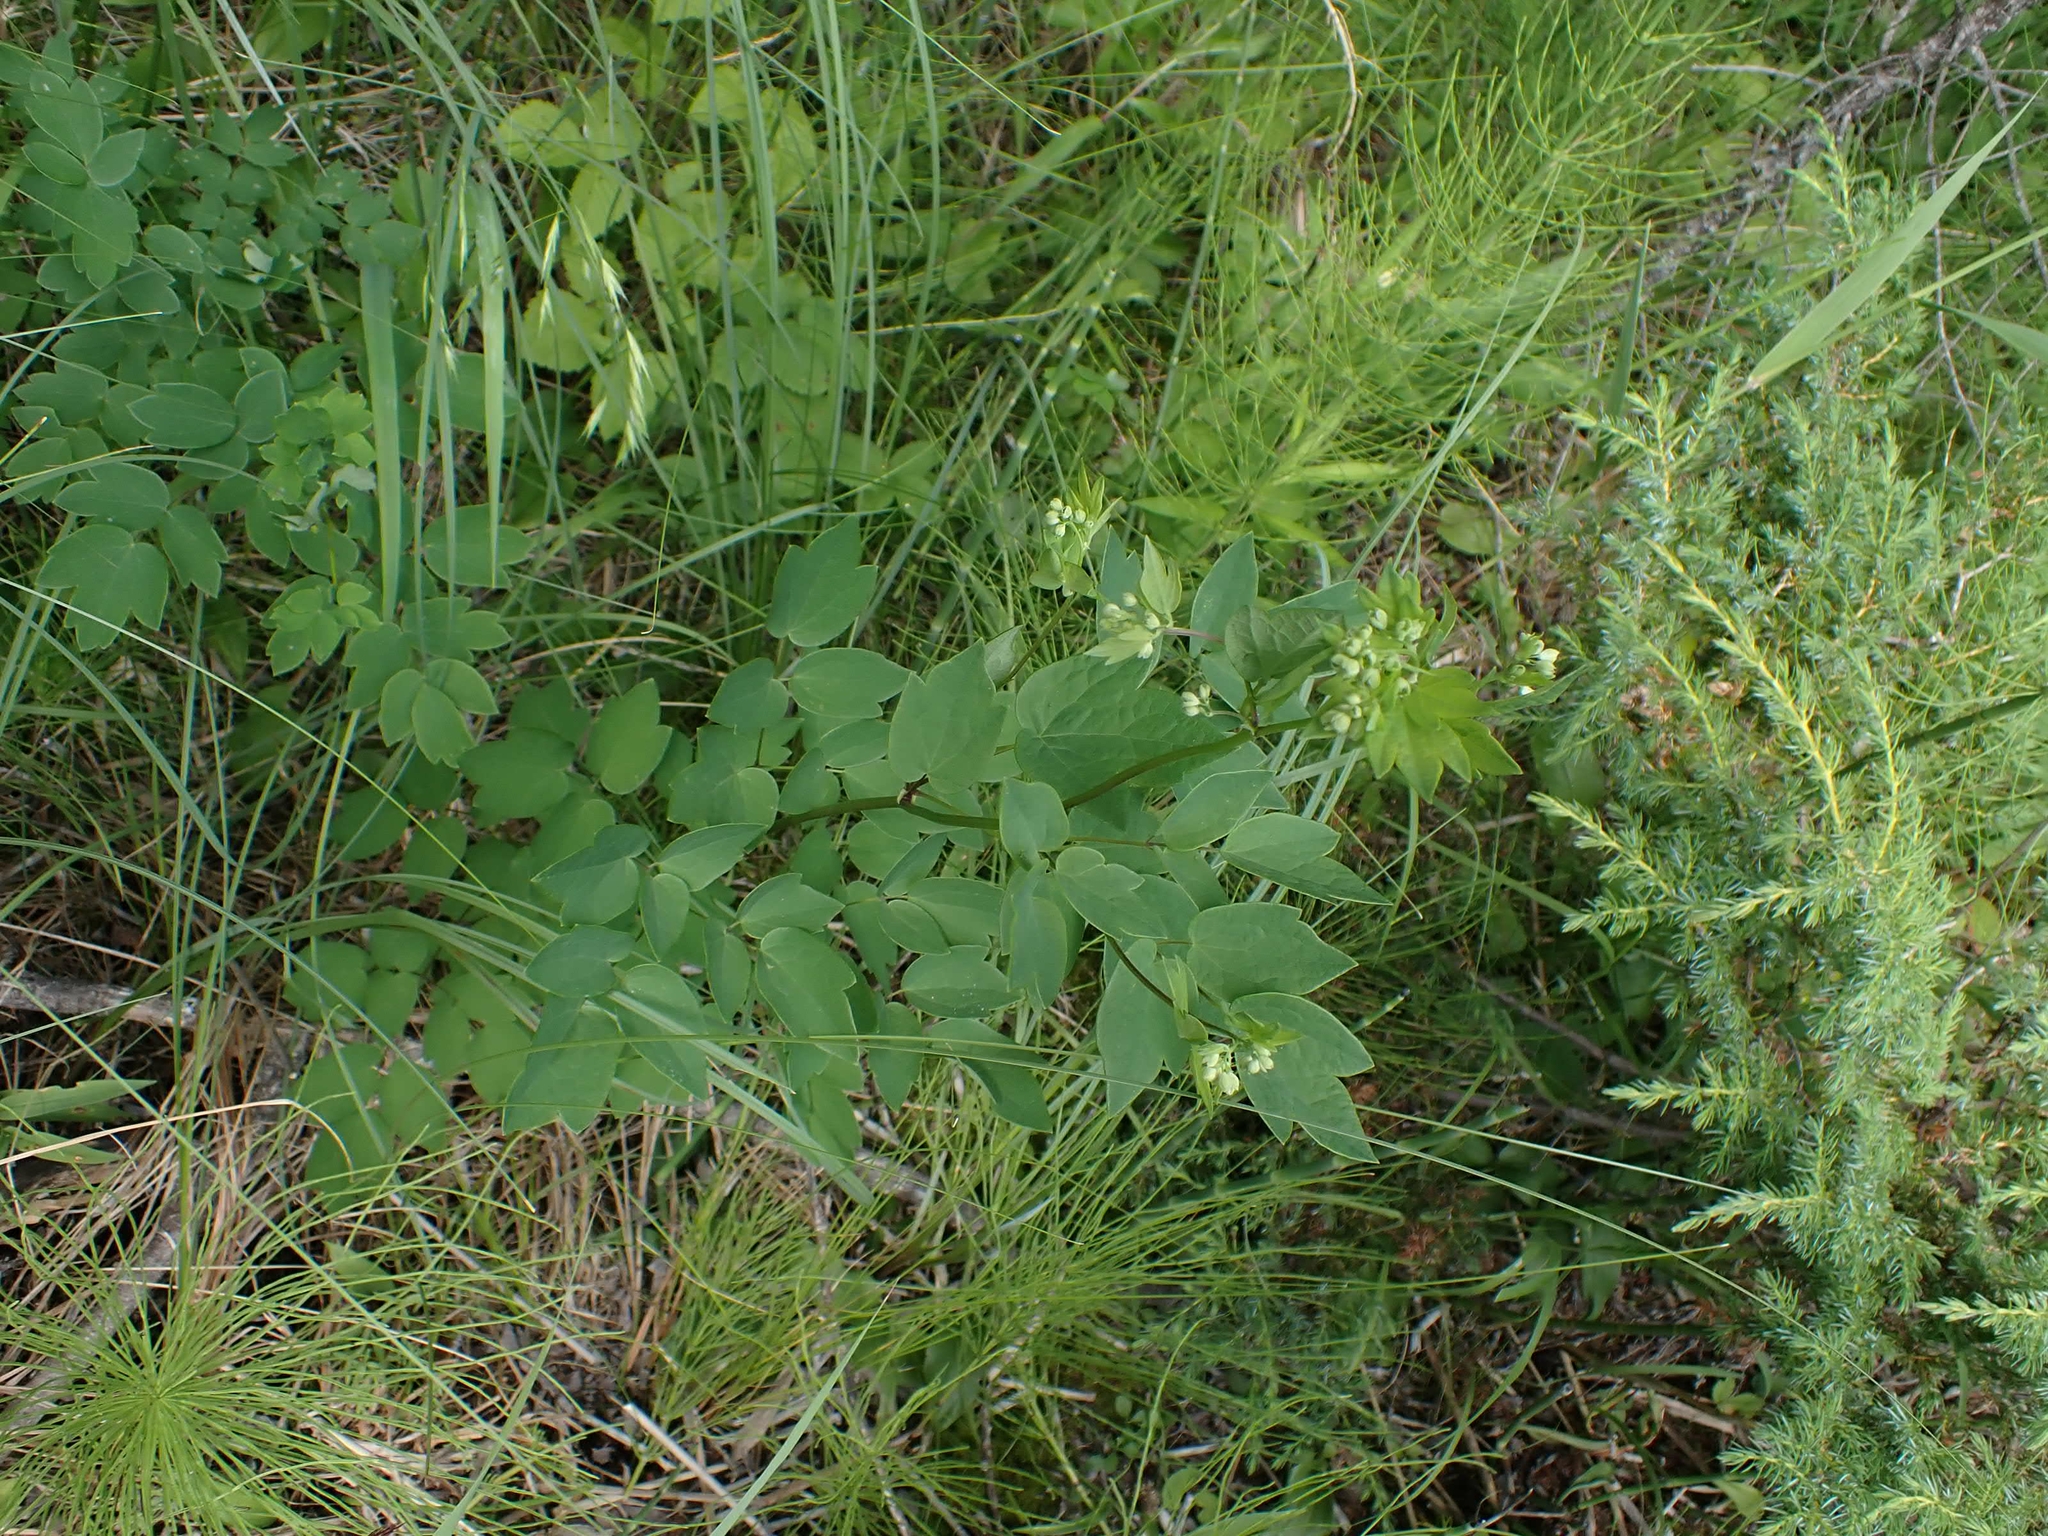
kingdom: Plantae
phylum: Tracheophyta
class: Magnoliopsida
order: Ranunculales
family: Ranunculaceae
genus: Thalictrum
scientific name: Thalictrum dasycarpum
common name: Purple meadow-rue
